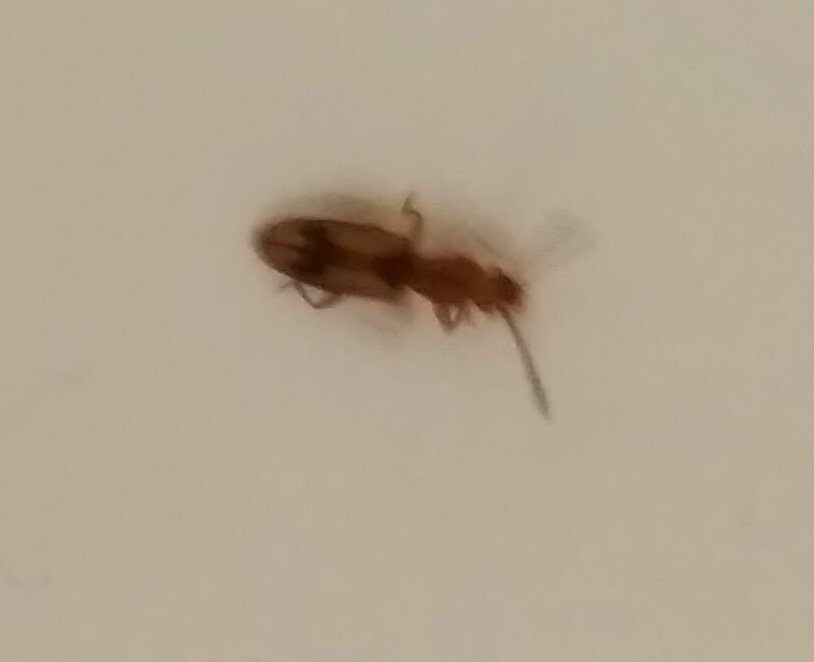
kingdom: Animalia
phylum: Arthropoda
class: Insecta
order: Coleoptera
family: Silvanidae
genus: Cryptamorpha
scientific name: Cryptamorpha desjardinsi
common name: Cryptamorpha
